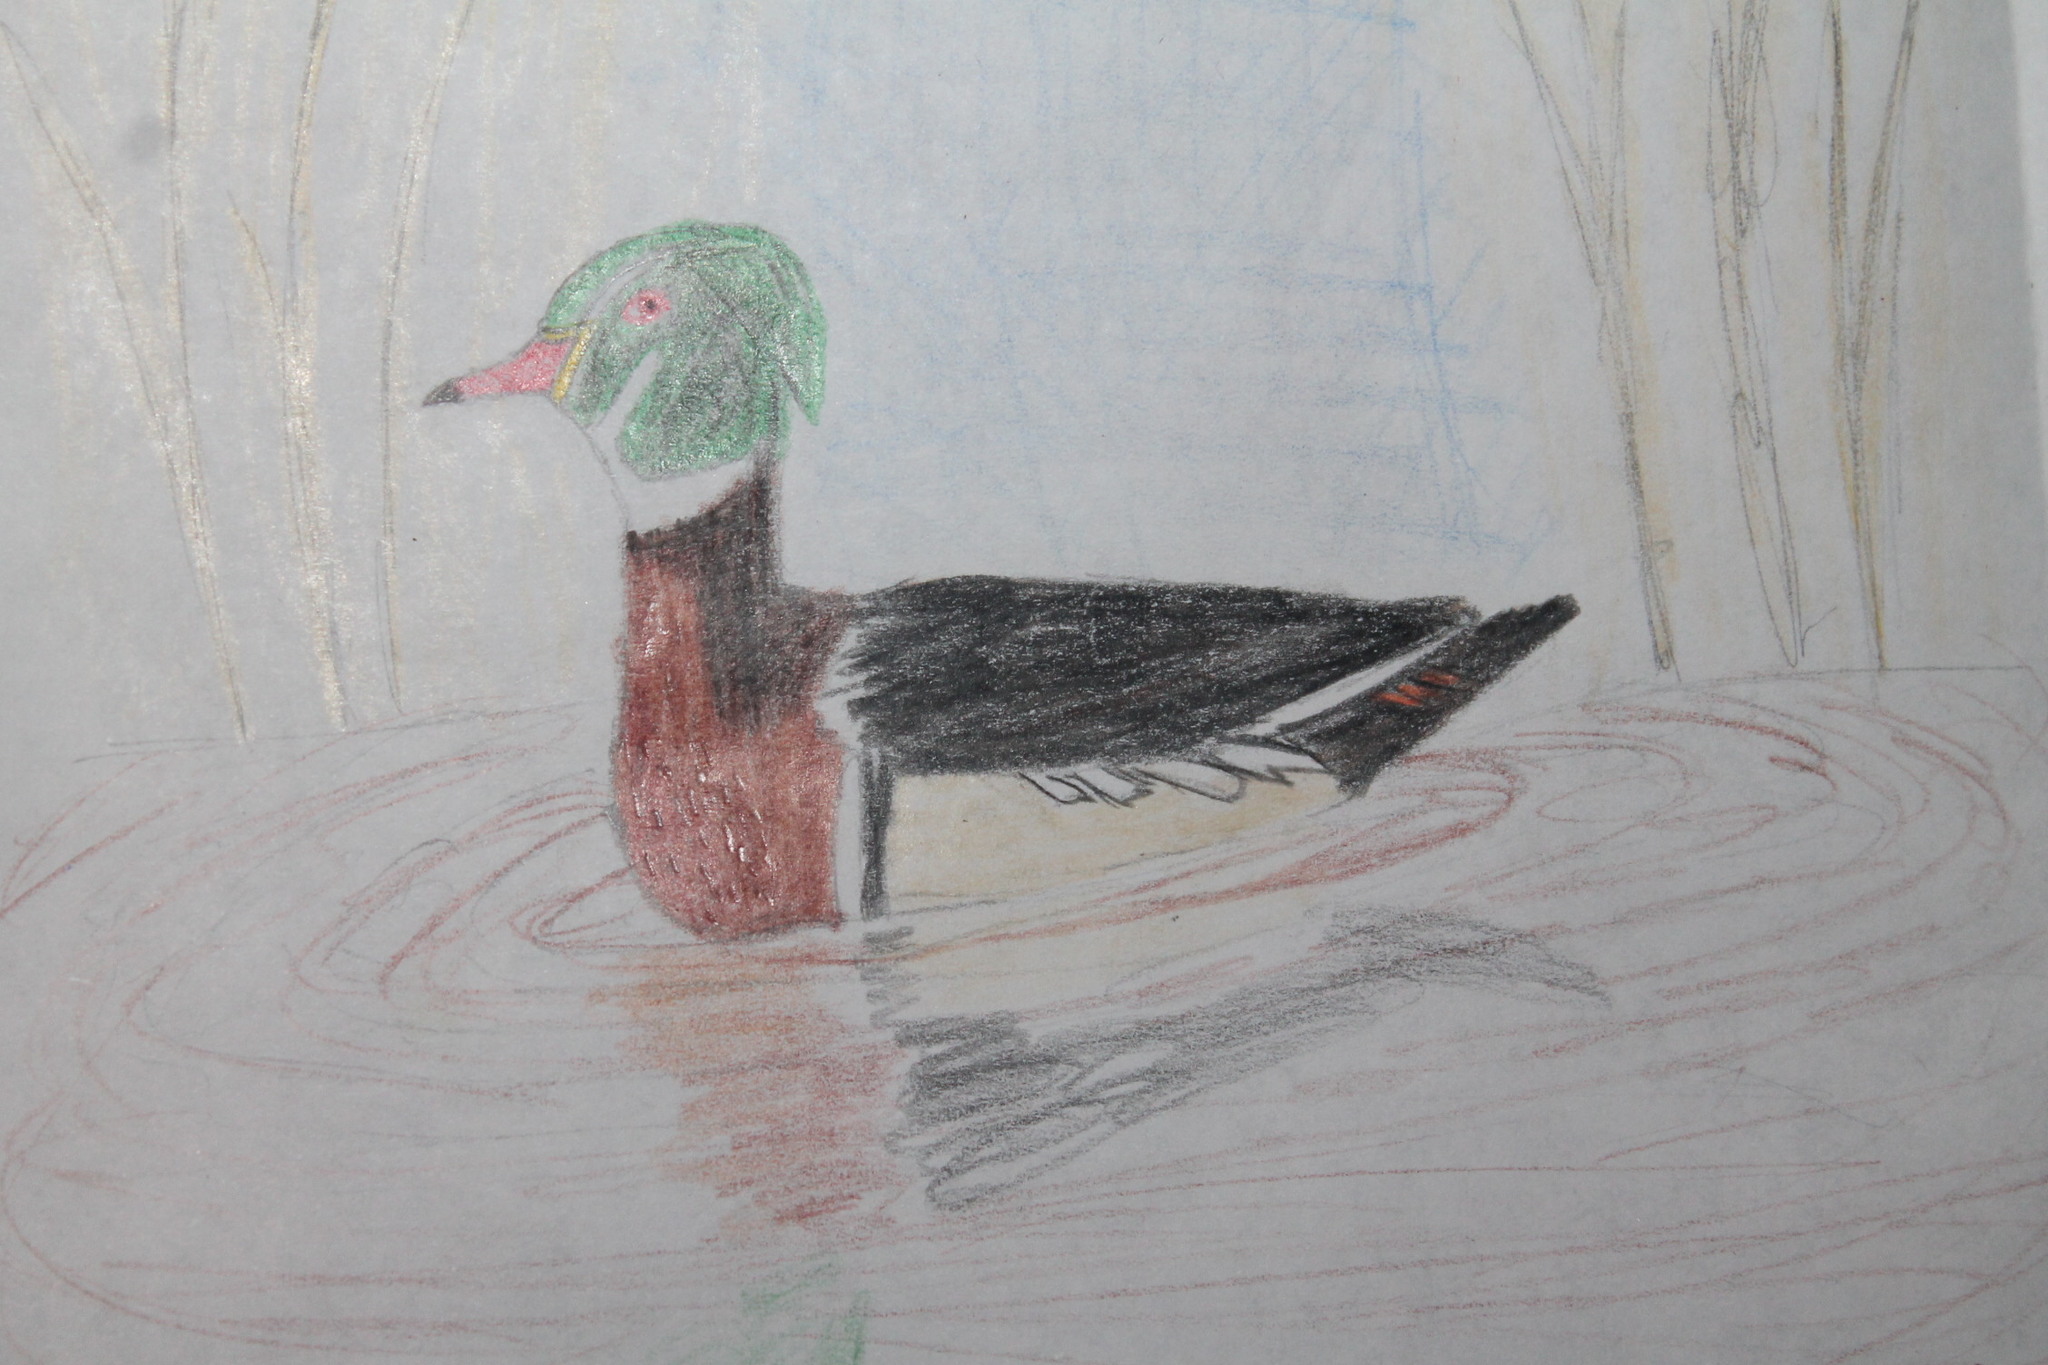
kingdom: Animalia
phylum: Chordata
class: Aves
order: Anseriformes
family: Anatidae
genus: Aix
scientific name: Aix sponsa
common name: Wood duck
